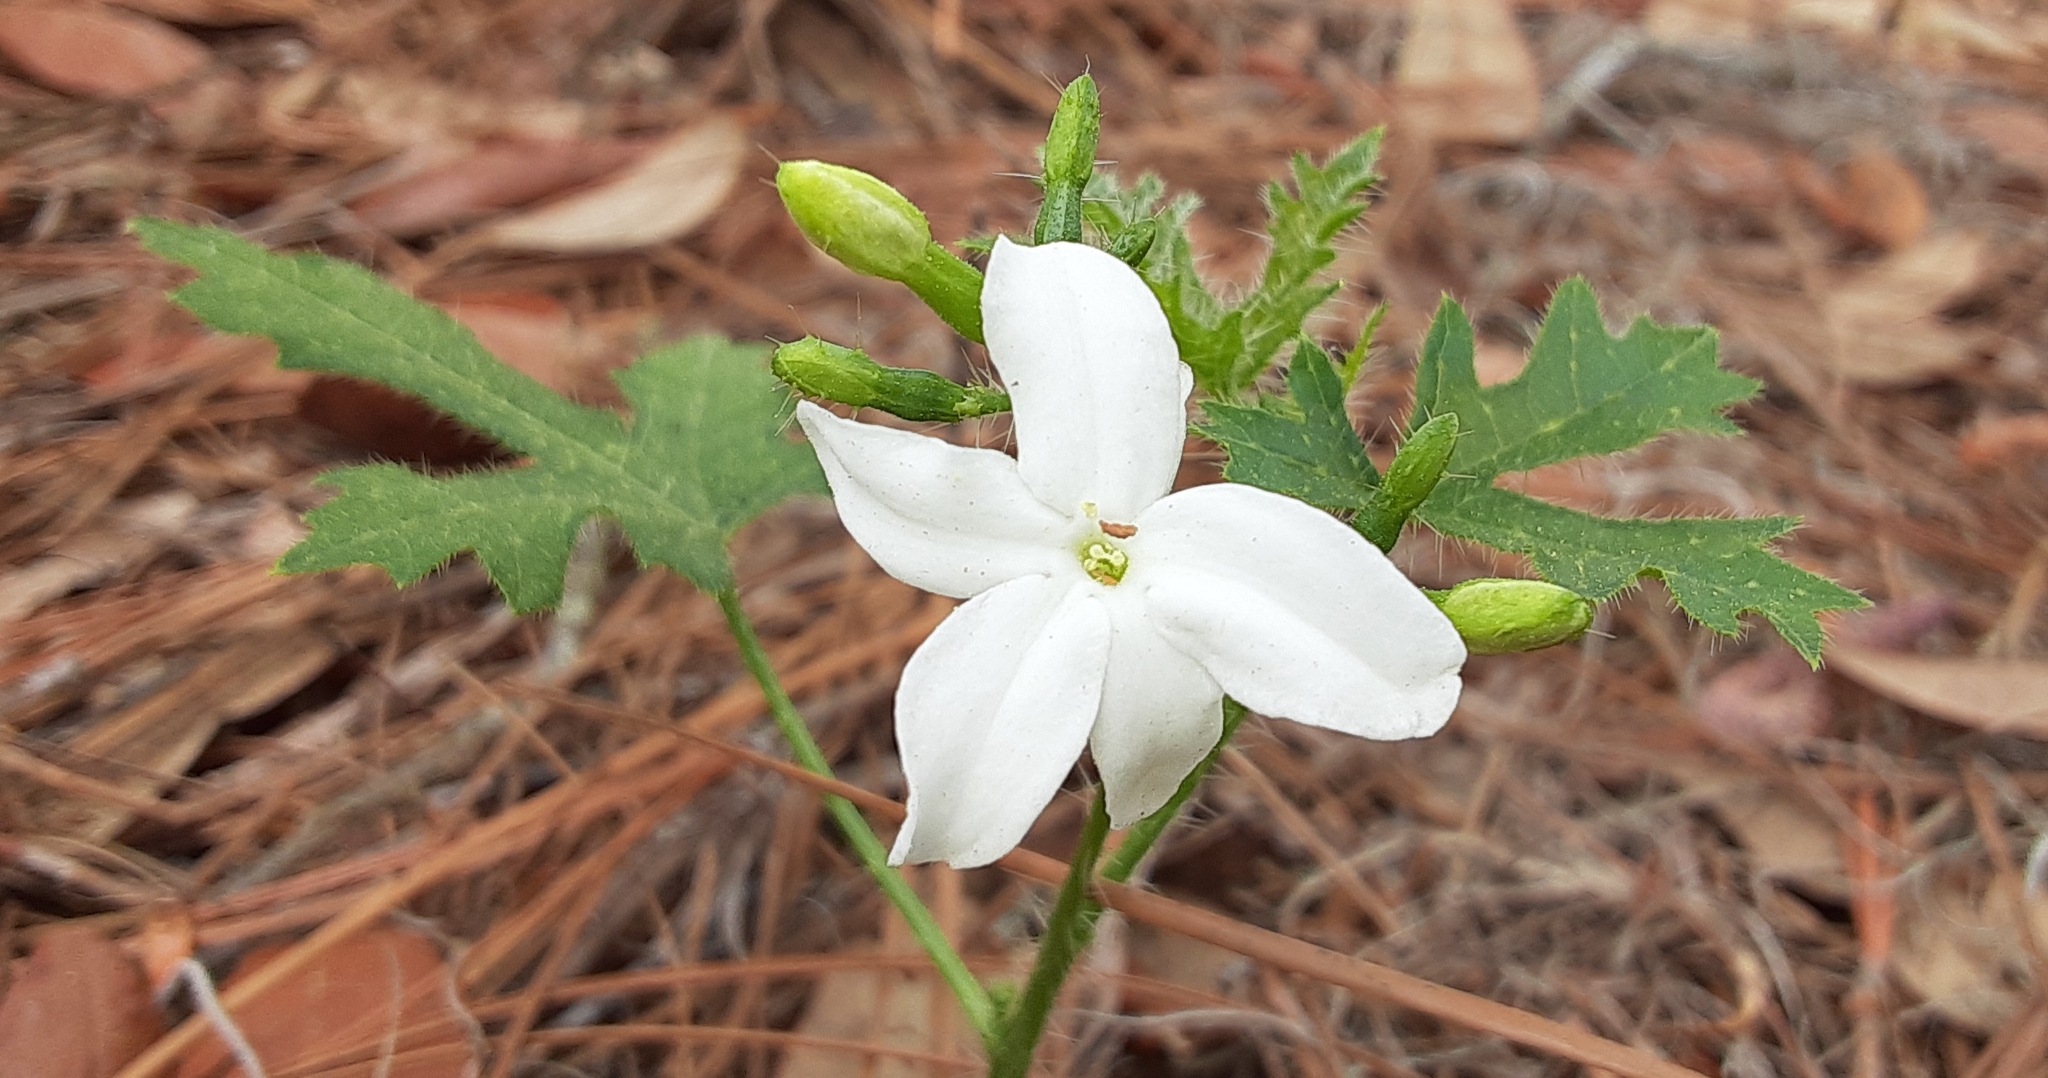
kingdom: Plantae
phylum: Tracheophyta
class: Magnoliopsida
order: Malpighiales
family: Euphorbiaceae
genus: Cnidoscolus
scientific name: Cnidoscolus stimulosus
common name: Bull-nettle
